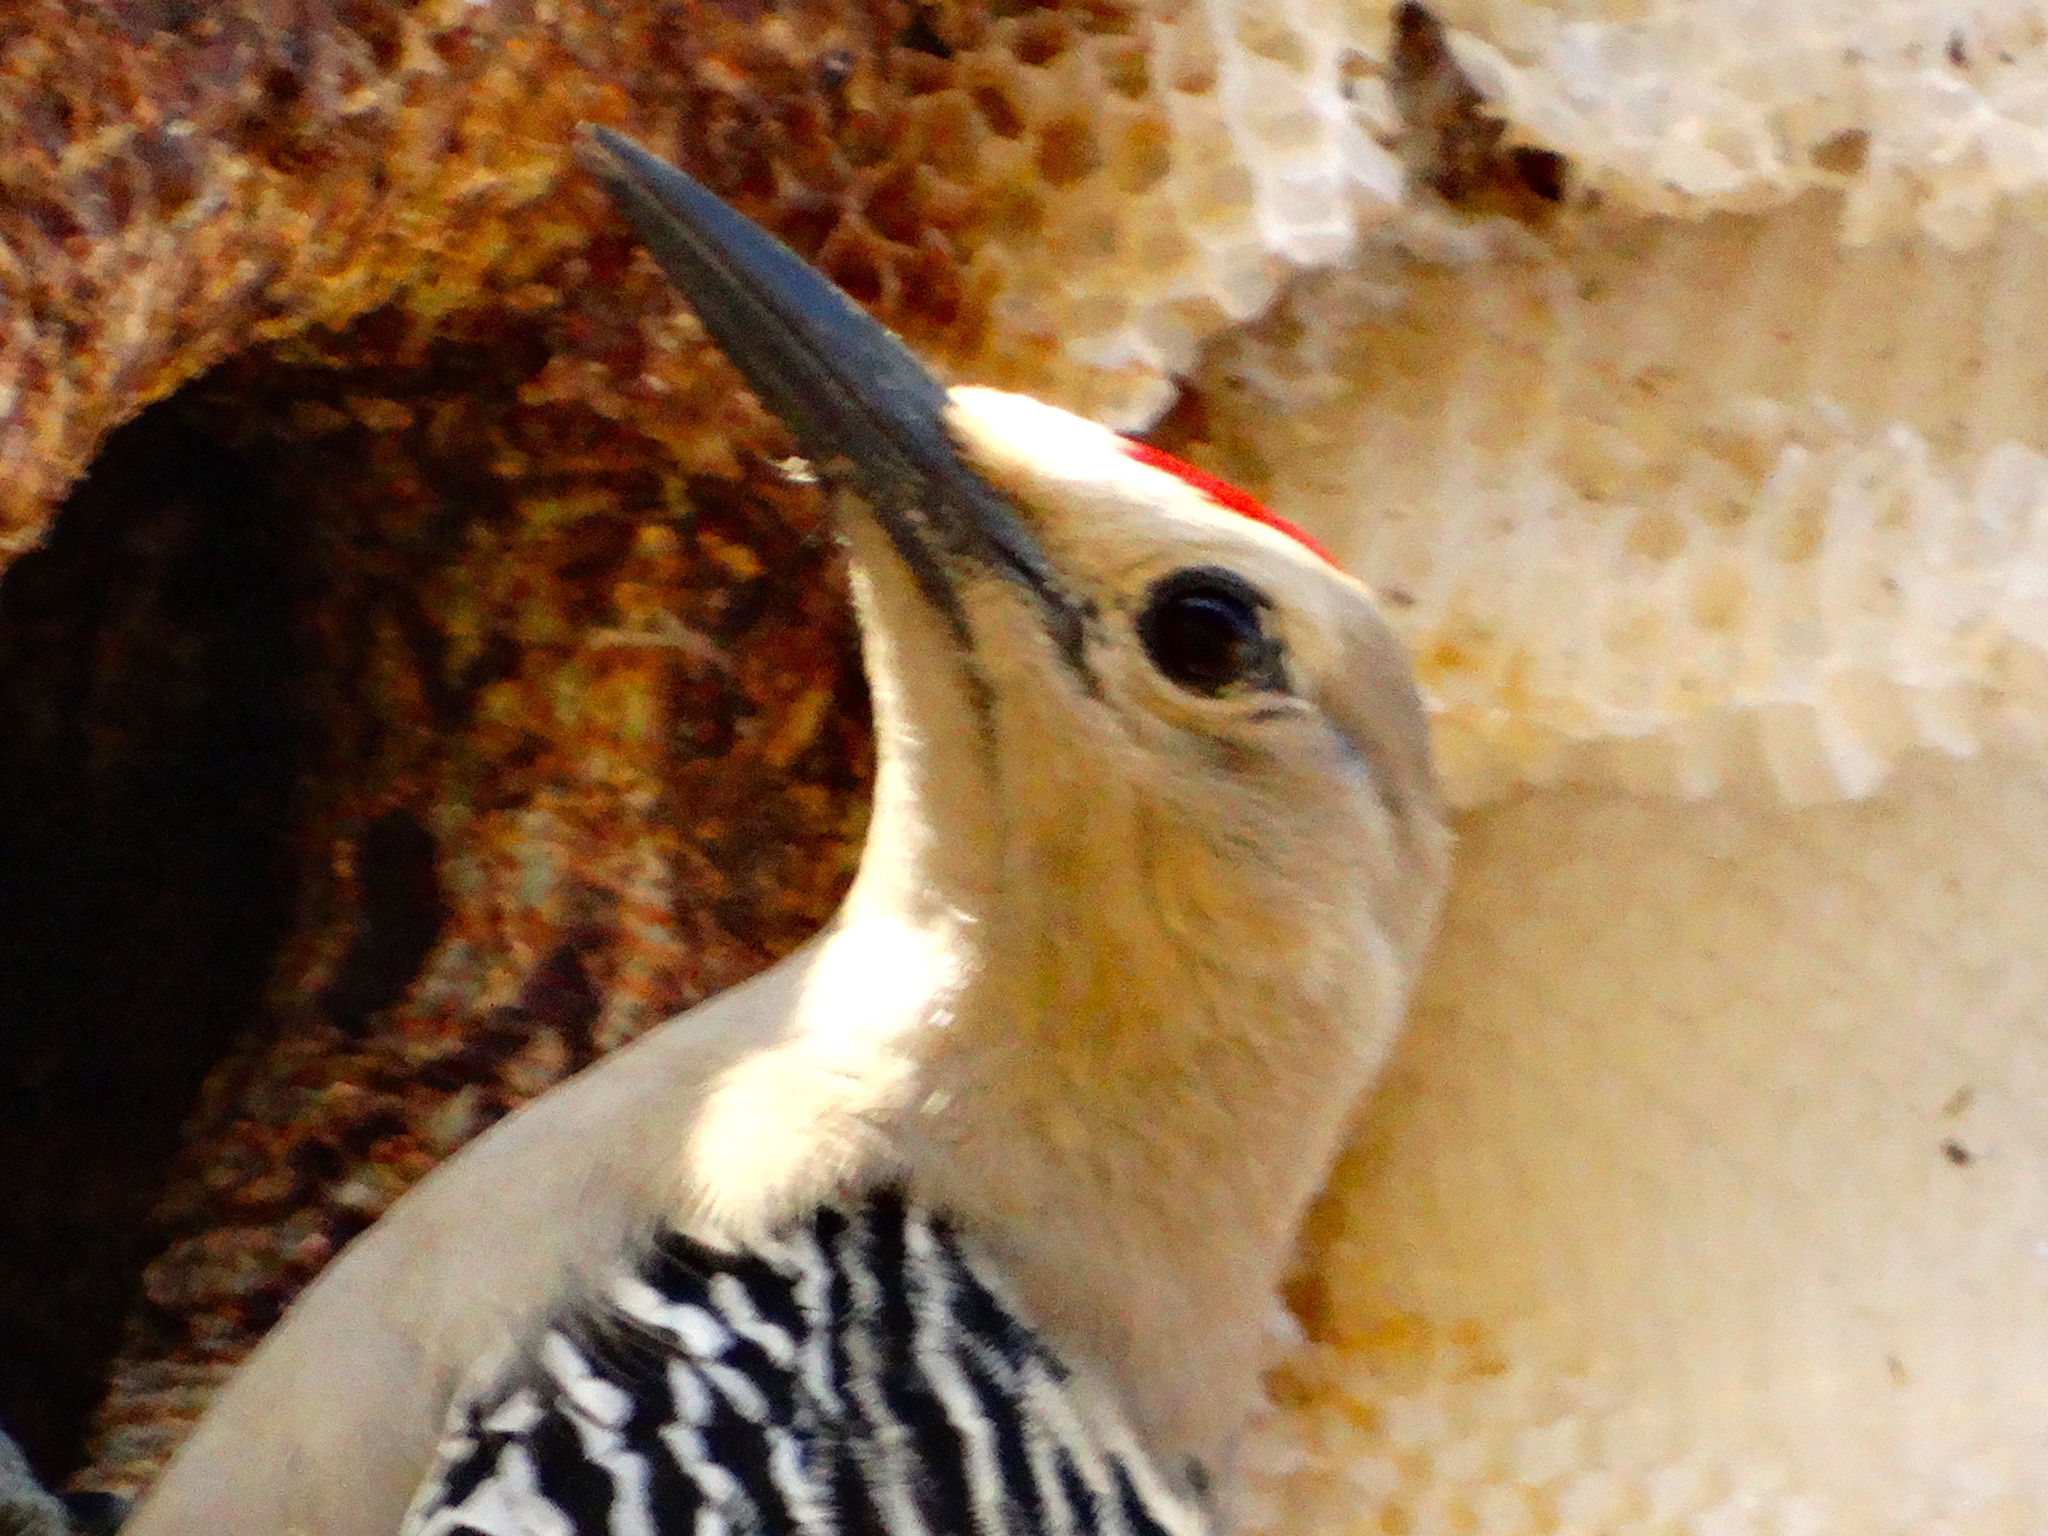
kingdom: Animalia
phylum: Chordata
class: Aves
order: Piciformes
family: Picidae
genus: Melanerpes
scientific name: Melanerpes uropygialis
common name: Gila woodpecker
